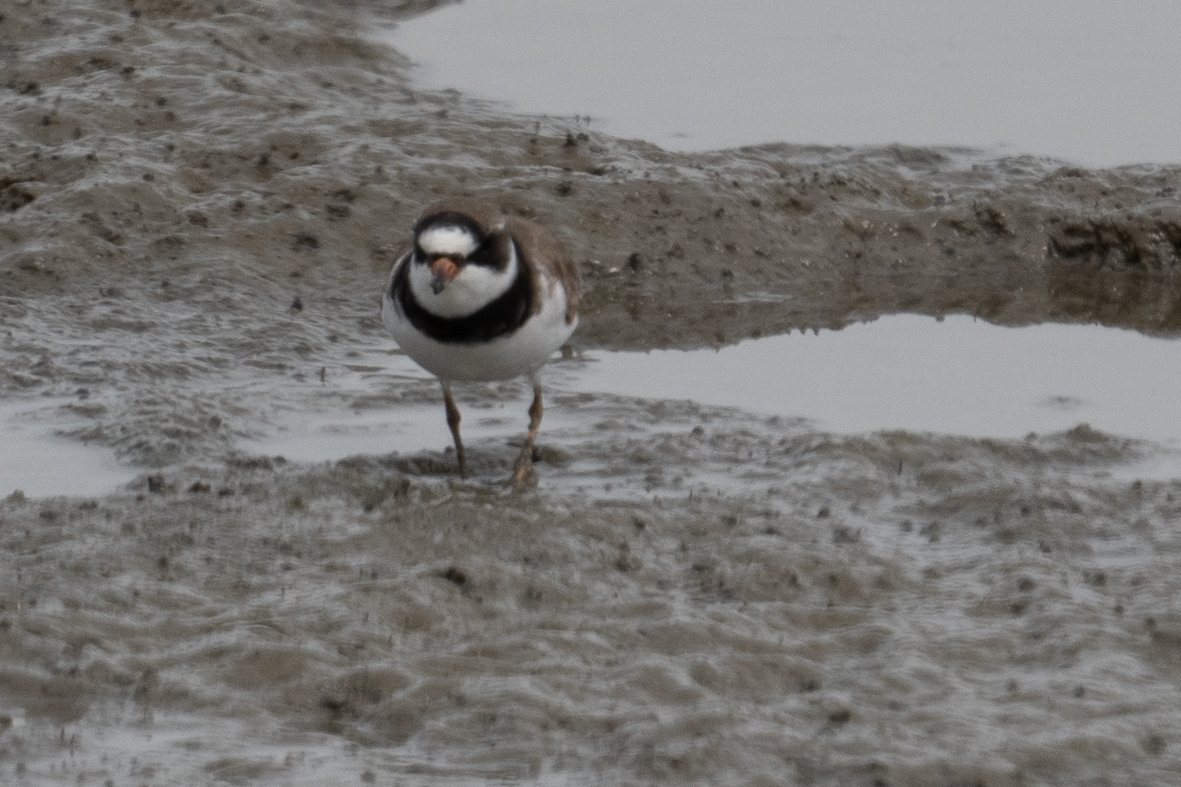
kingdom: Animalia
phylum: Chordata
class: Aves
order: Charadriiformes
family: Charadriidae
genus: Charadrius
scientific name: Charadrius semipalmatus
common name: Semipalmated plover
